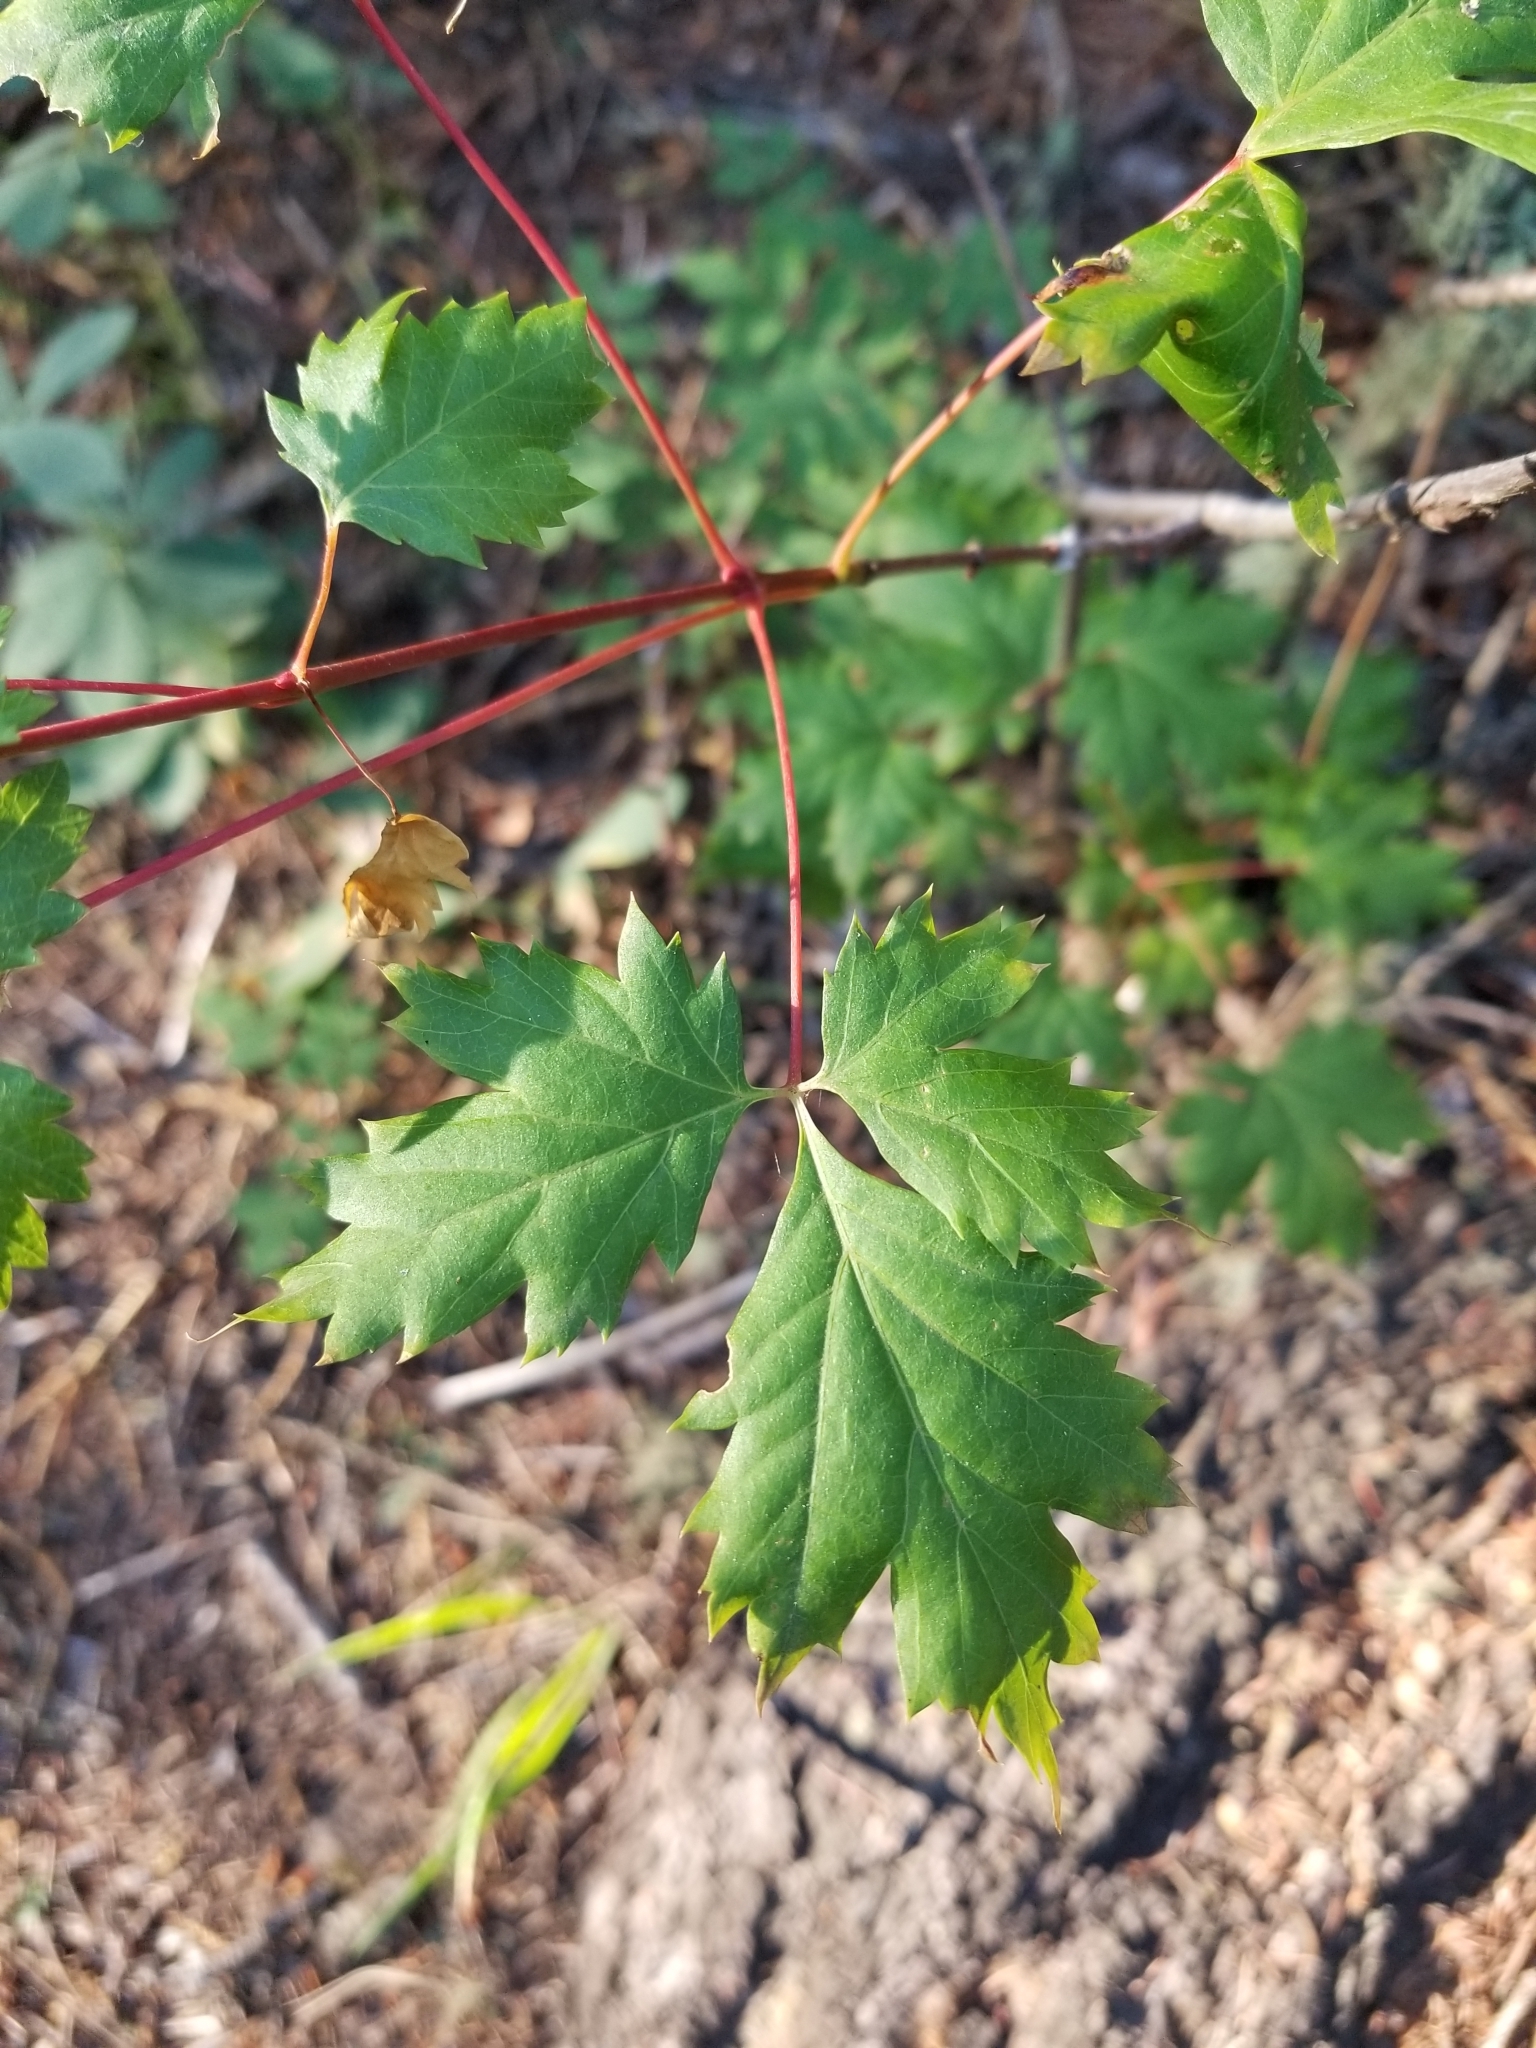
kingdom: Plantae
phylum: Tracheophyta
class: Magnoliopsida
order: Sapindales
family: Sapindaceae
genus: Acer
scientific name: Acer glabrum
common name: Rocky mountain maple
